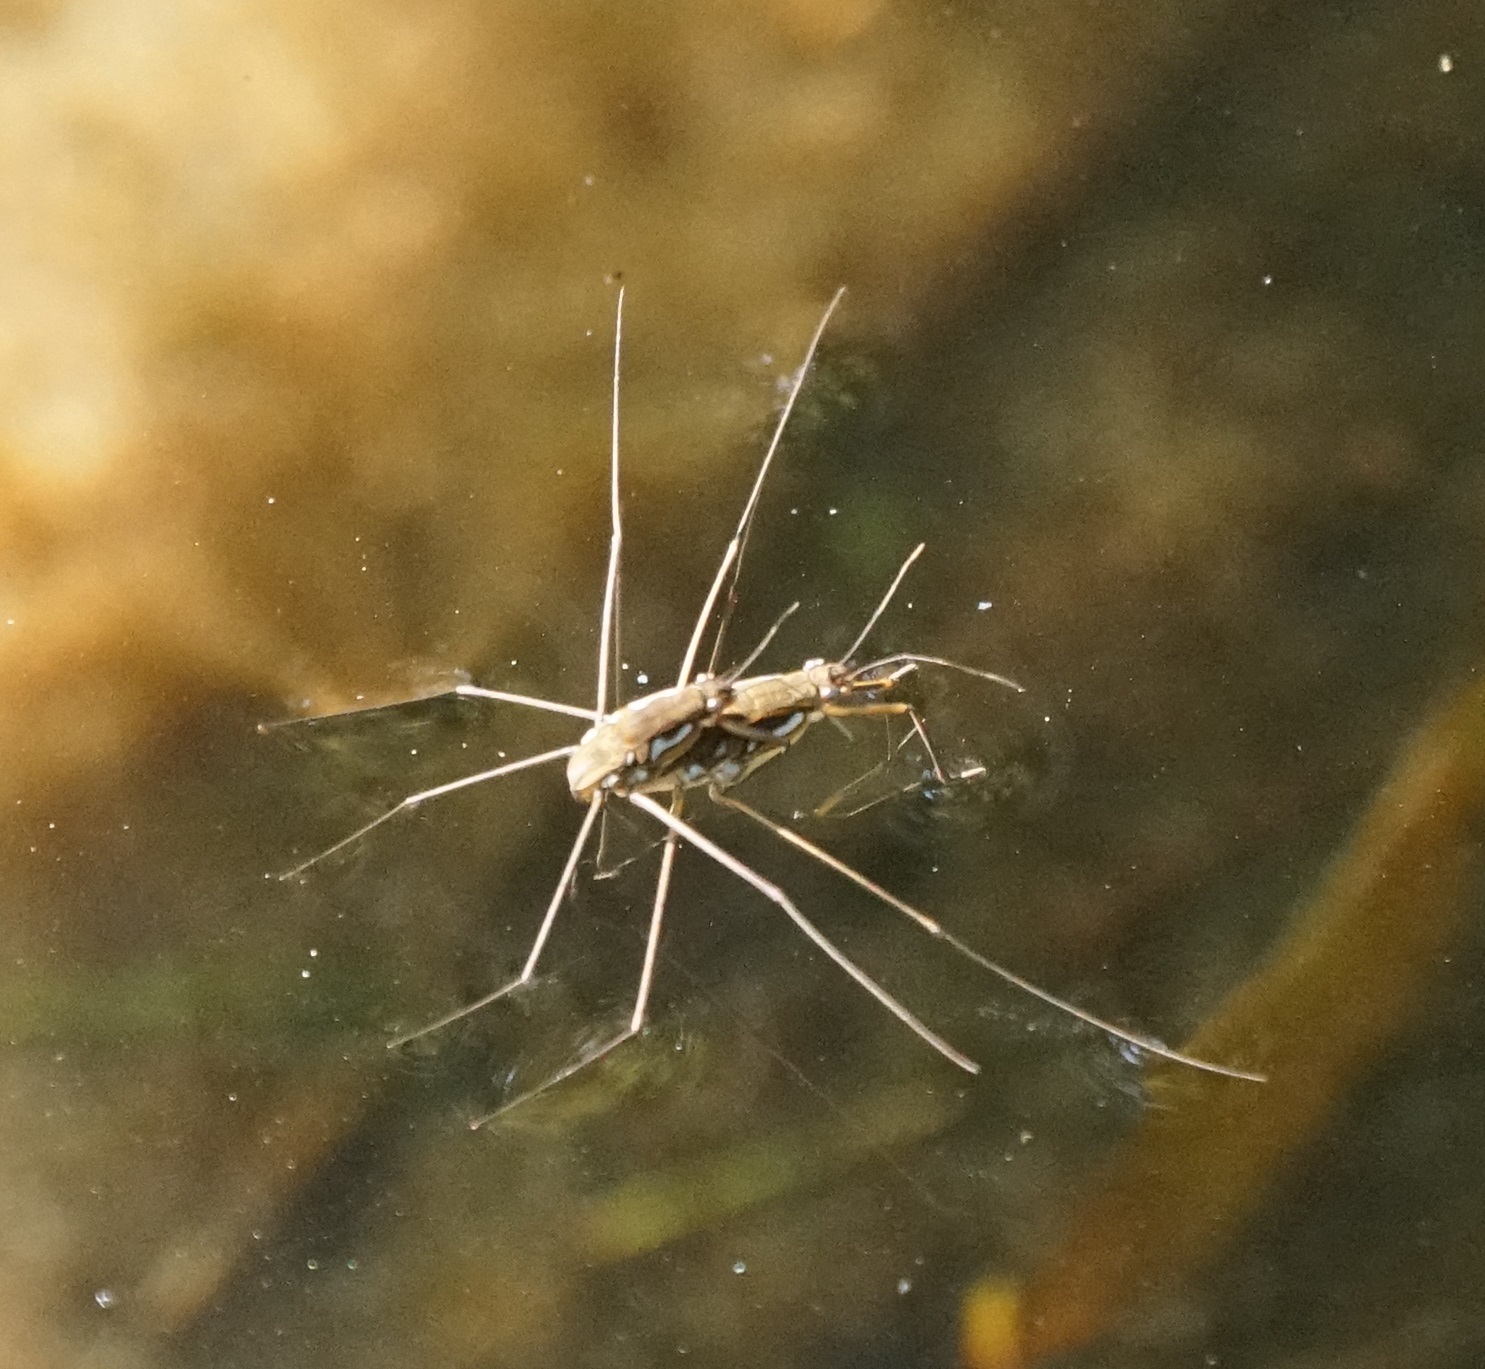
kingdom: Animalia
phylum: Arthropoda
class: Insecta
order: Hemiptera
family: Gerridae
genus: Tenagogerris
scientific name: Tenagogerris euphrosyne
